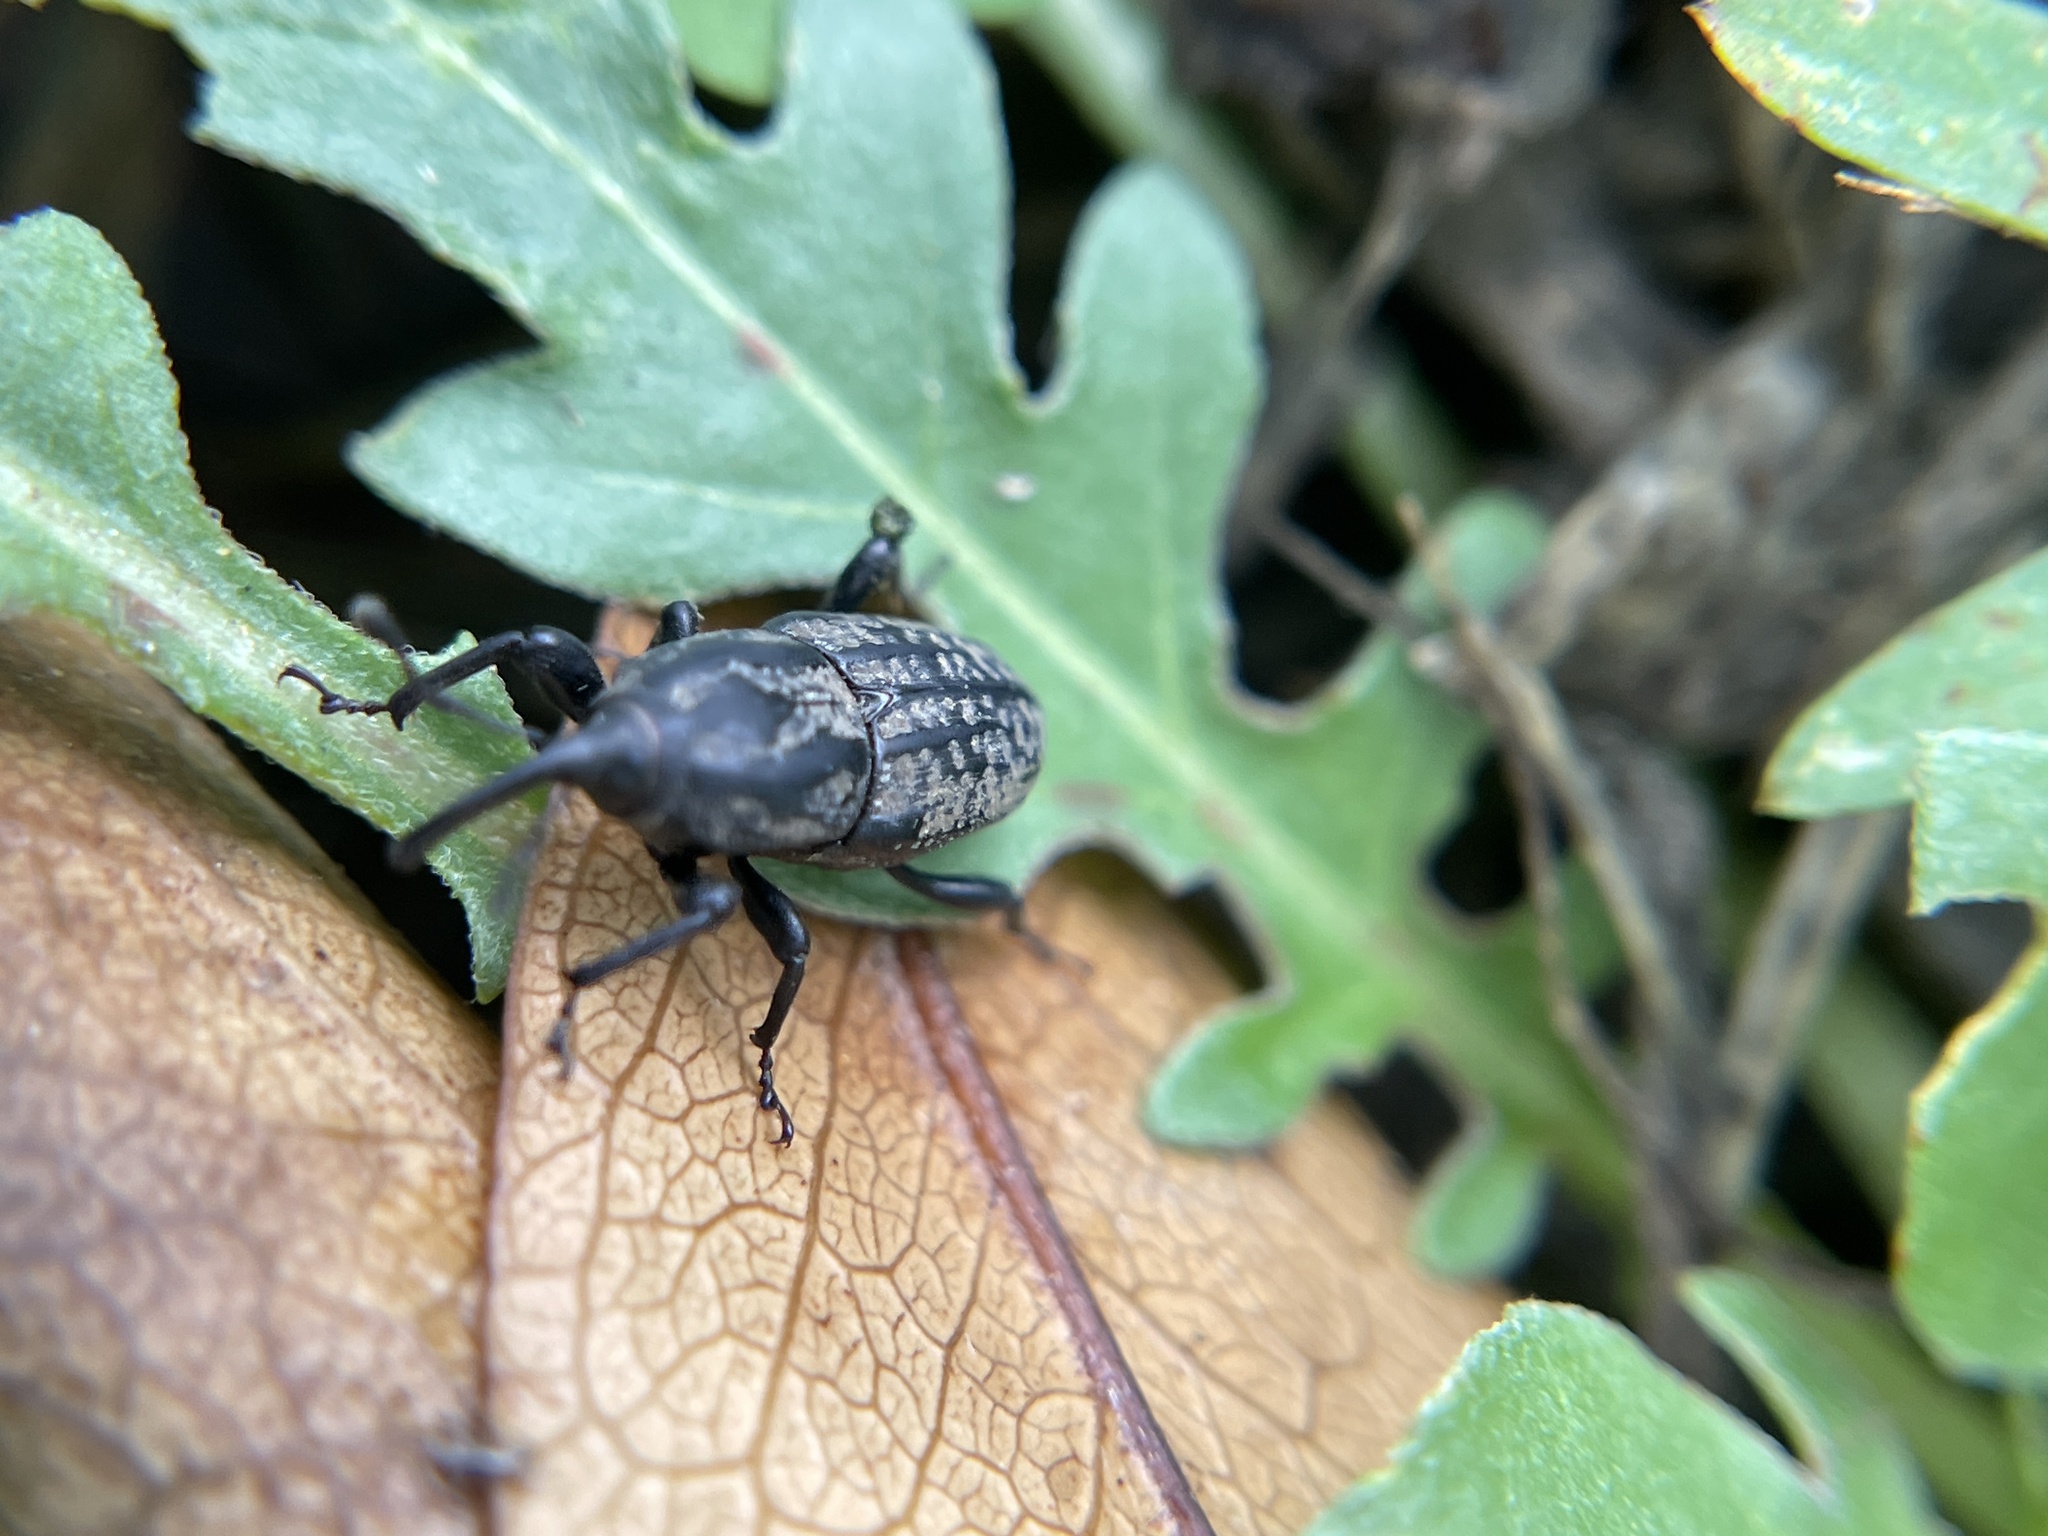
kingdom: Animalia
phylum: Arthropoda
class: Insecta
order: Coleoptera
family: Dryophthoridae
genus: Sphenophorus
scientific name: Sphenophorus cariosus
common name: Weevil
